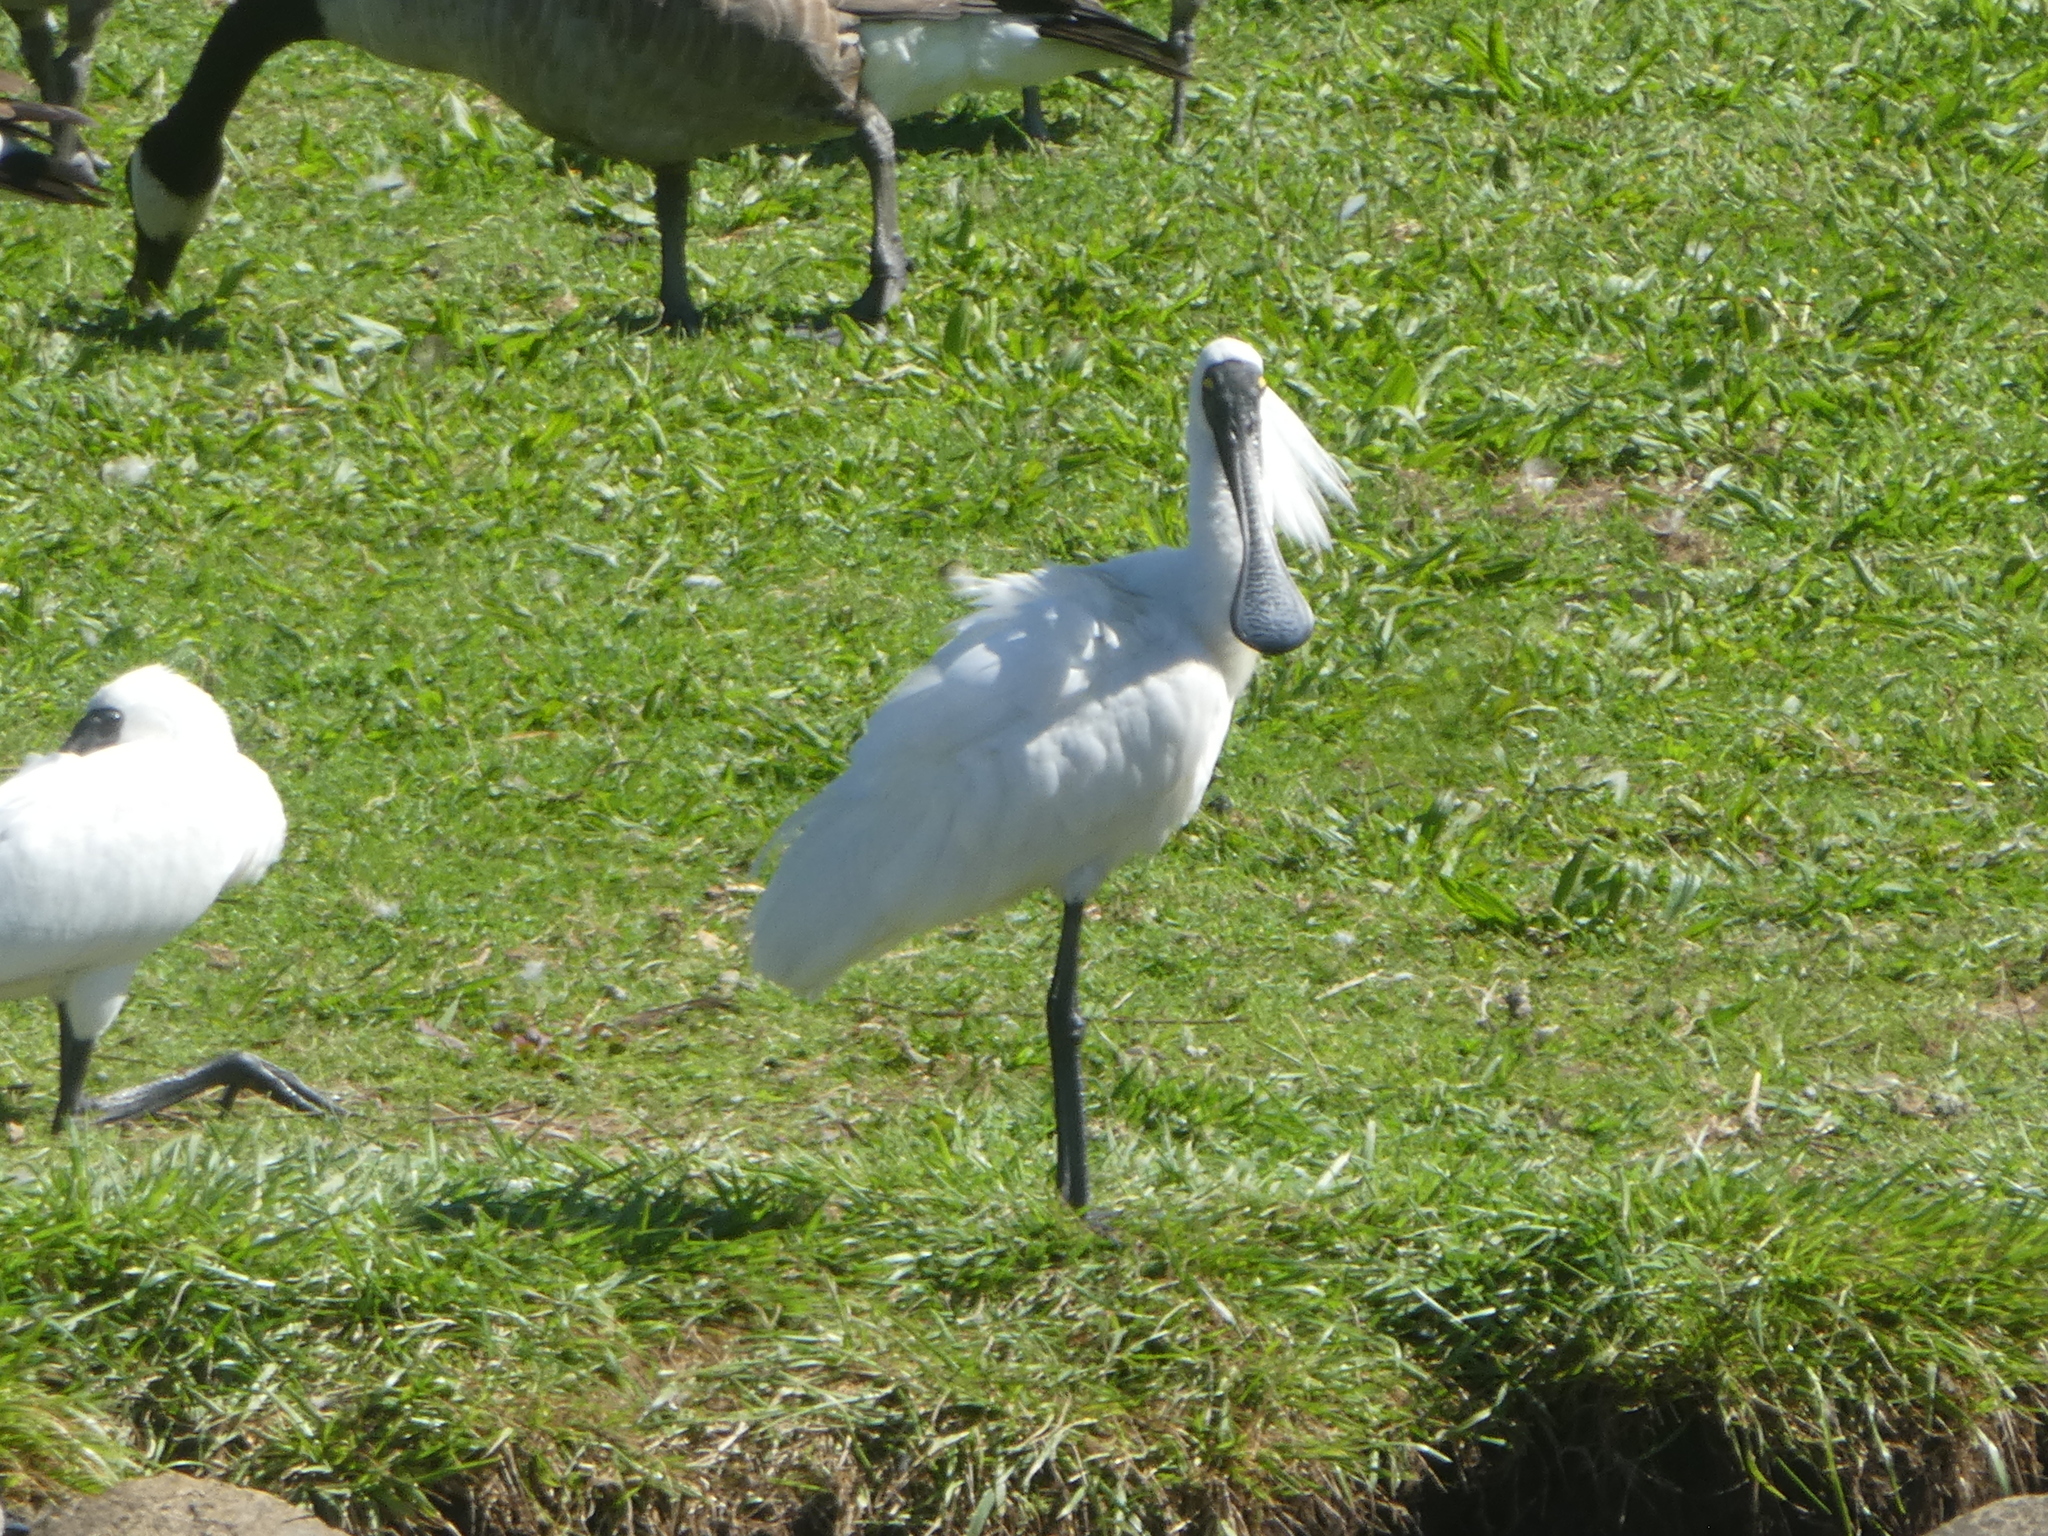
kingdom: Animalia
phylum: Chordata
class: Aves
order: Pelecaniformes
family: Threskiornithidae
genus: Platalea
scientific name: Platalea regia
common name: Royal spoonbill
